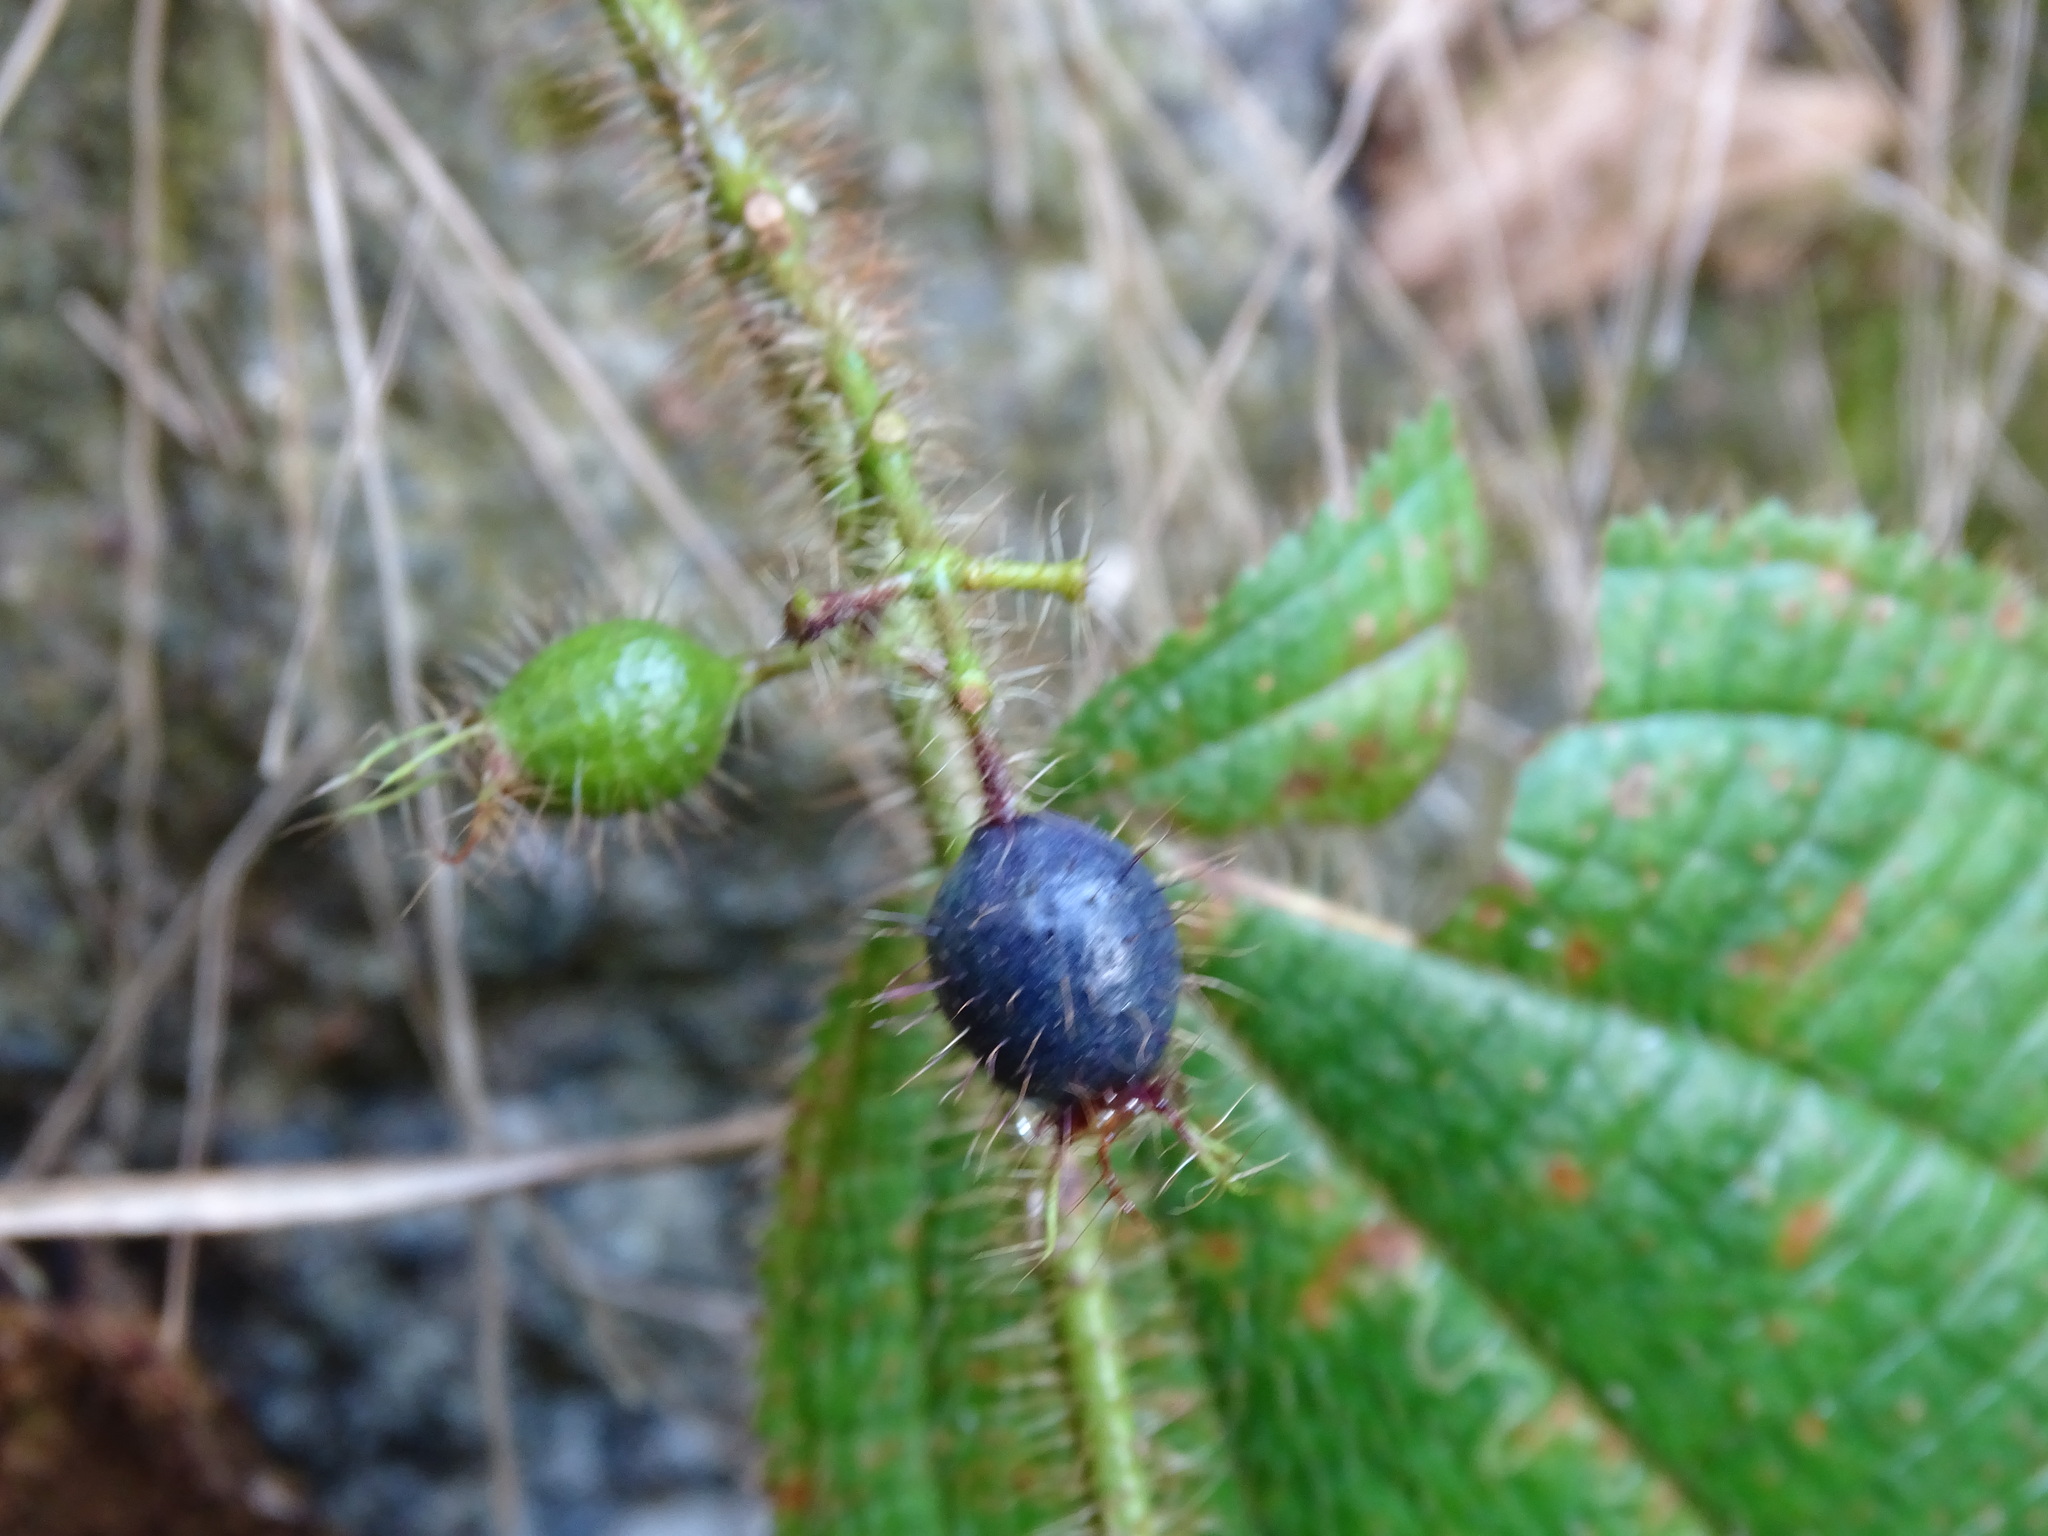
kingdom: Plantae
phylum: Tracheophyta
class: Magnoliopsida
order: Myrtales
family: Melastomataceae
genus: Miconia
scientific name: Miconia crenata
